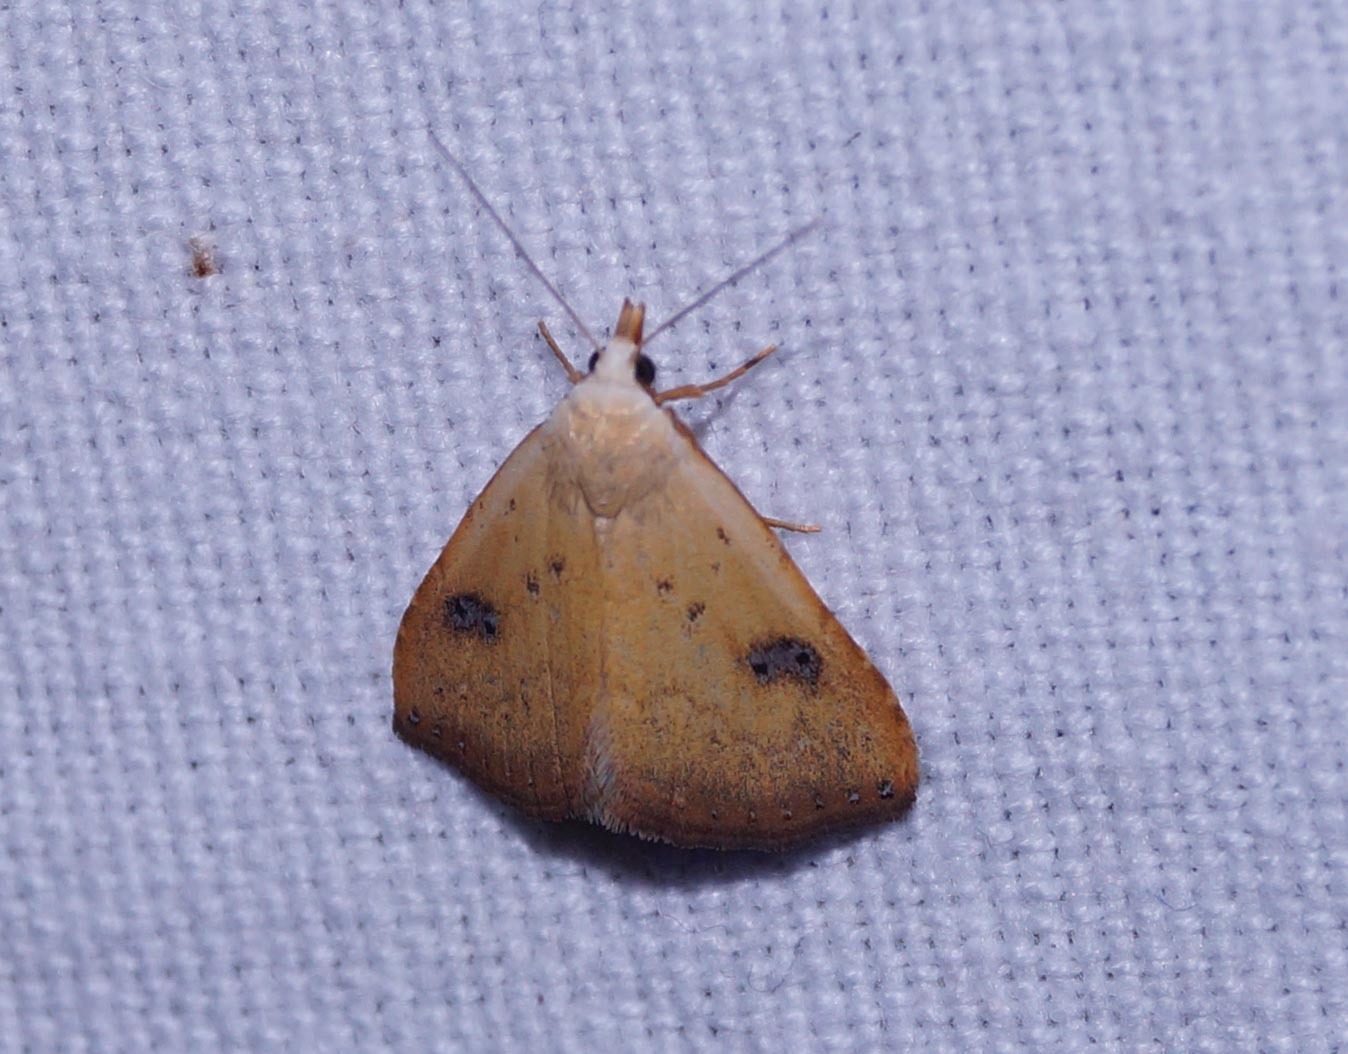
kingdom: Animalia
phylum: Arthropoda
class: Insecta
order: Lepidoptera
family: Erebidae
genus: Rivula
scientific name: Rivula sericealis
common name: Straw dot
